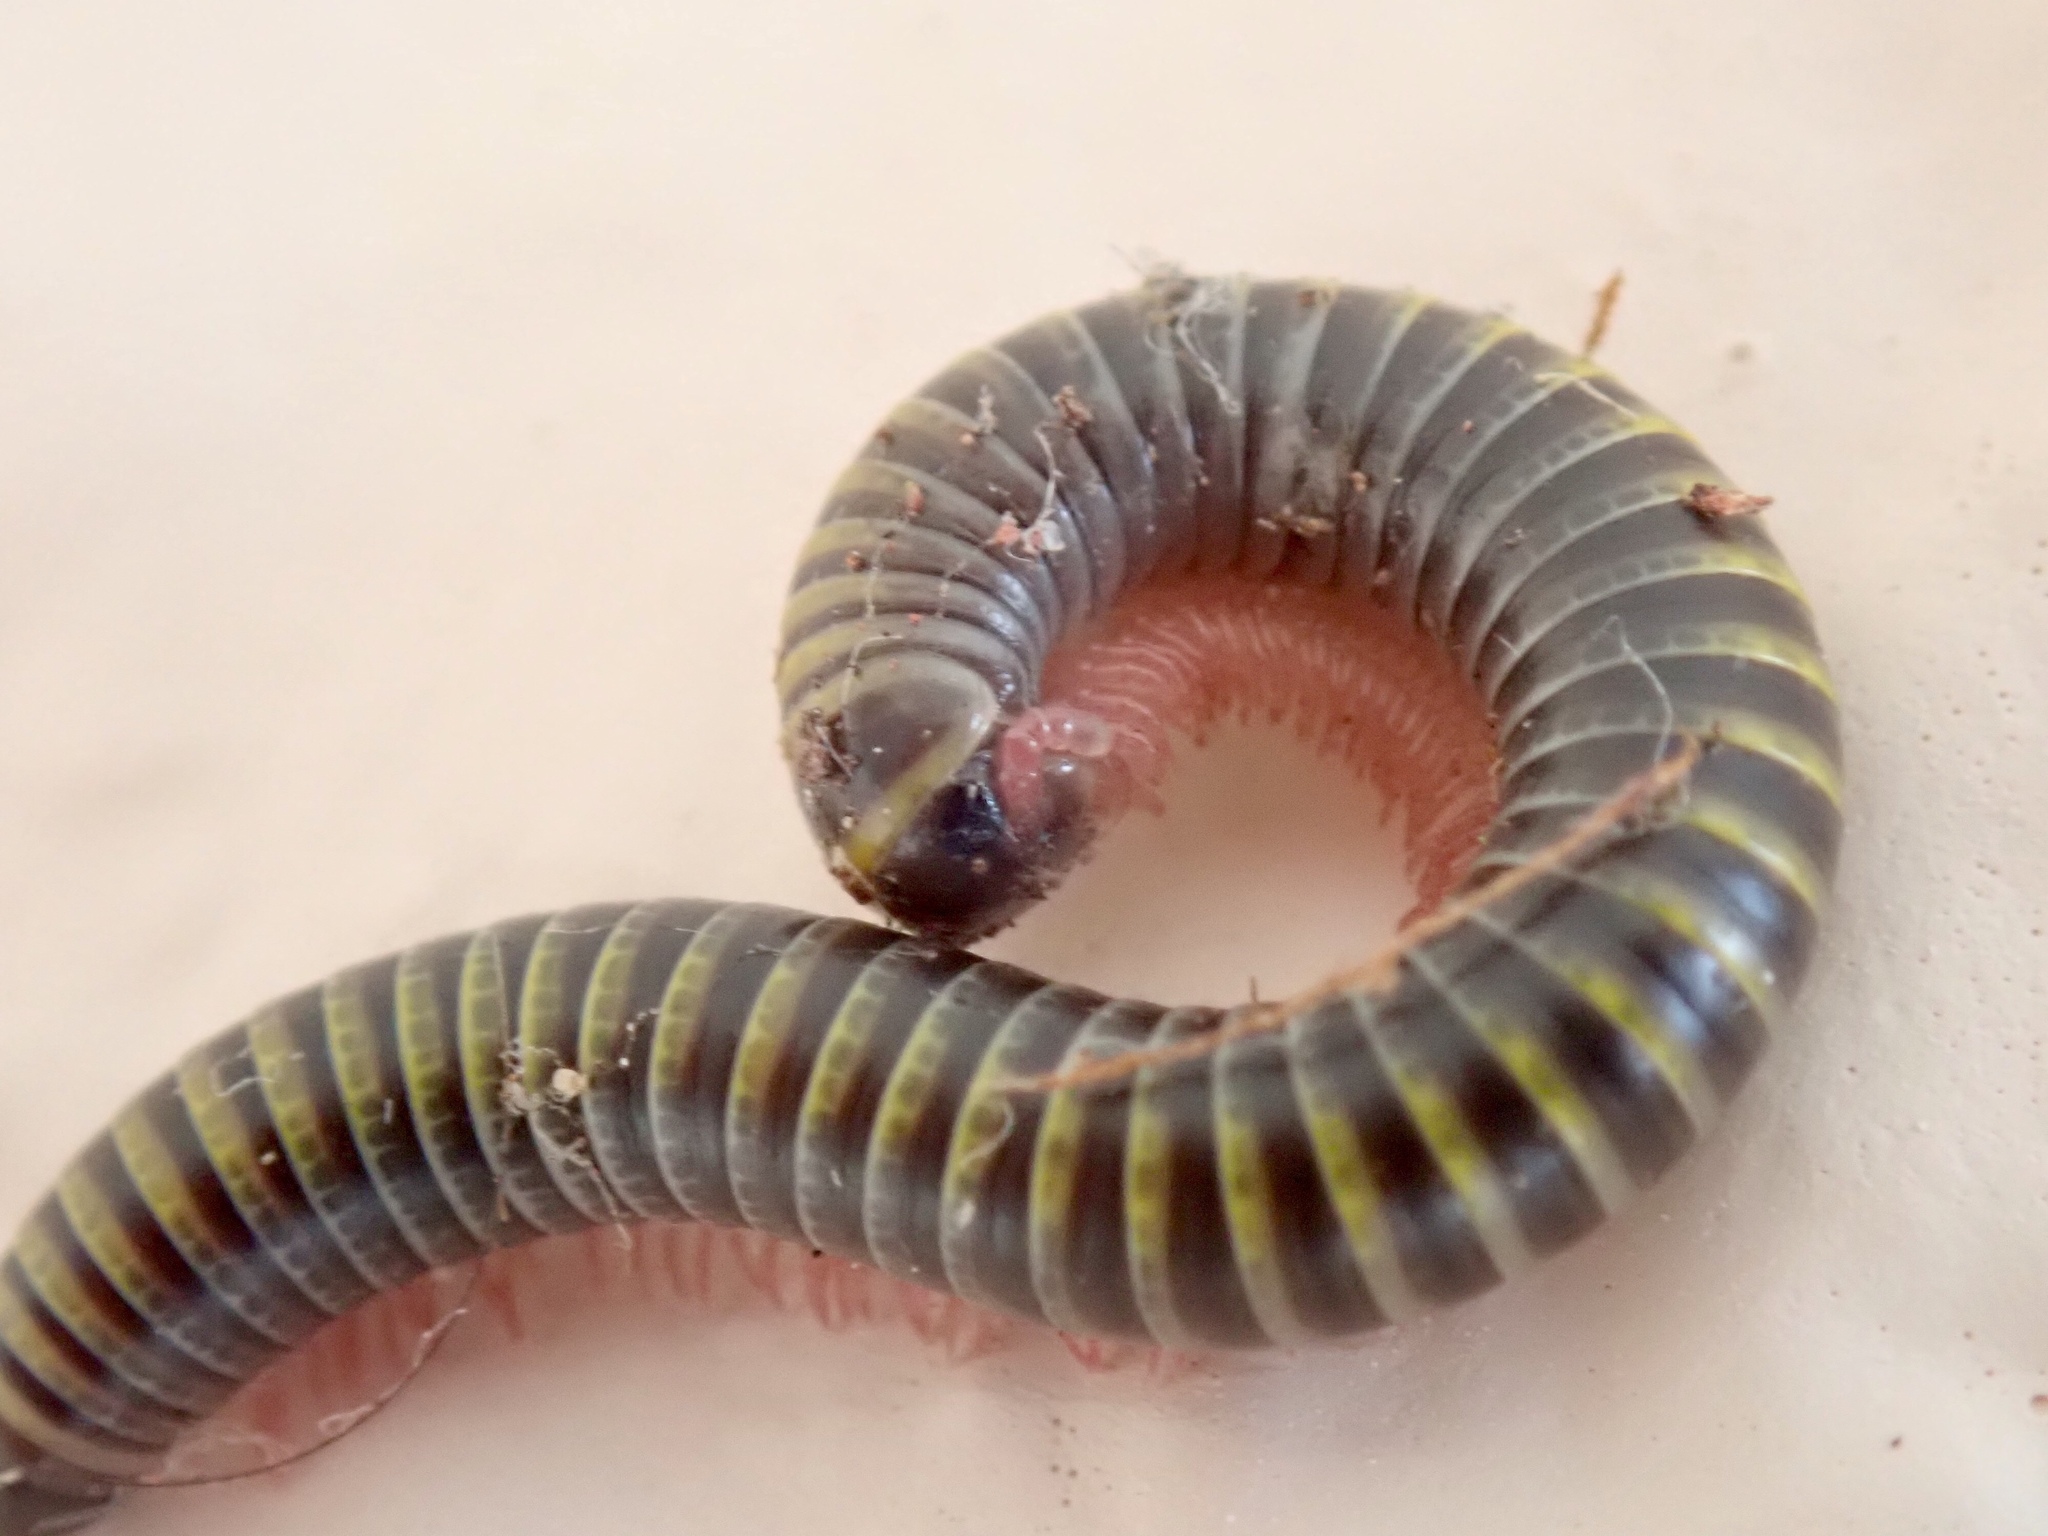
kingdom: Animalia
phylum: Arthropoda
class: Diplopoda
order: Spirobolida
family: Rhinocricidae
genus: Anadenobolus
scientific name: Anadenobolus monilicornis
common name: Caribbean millipede
